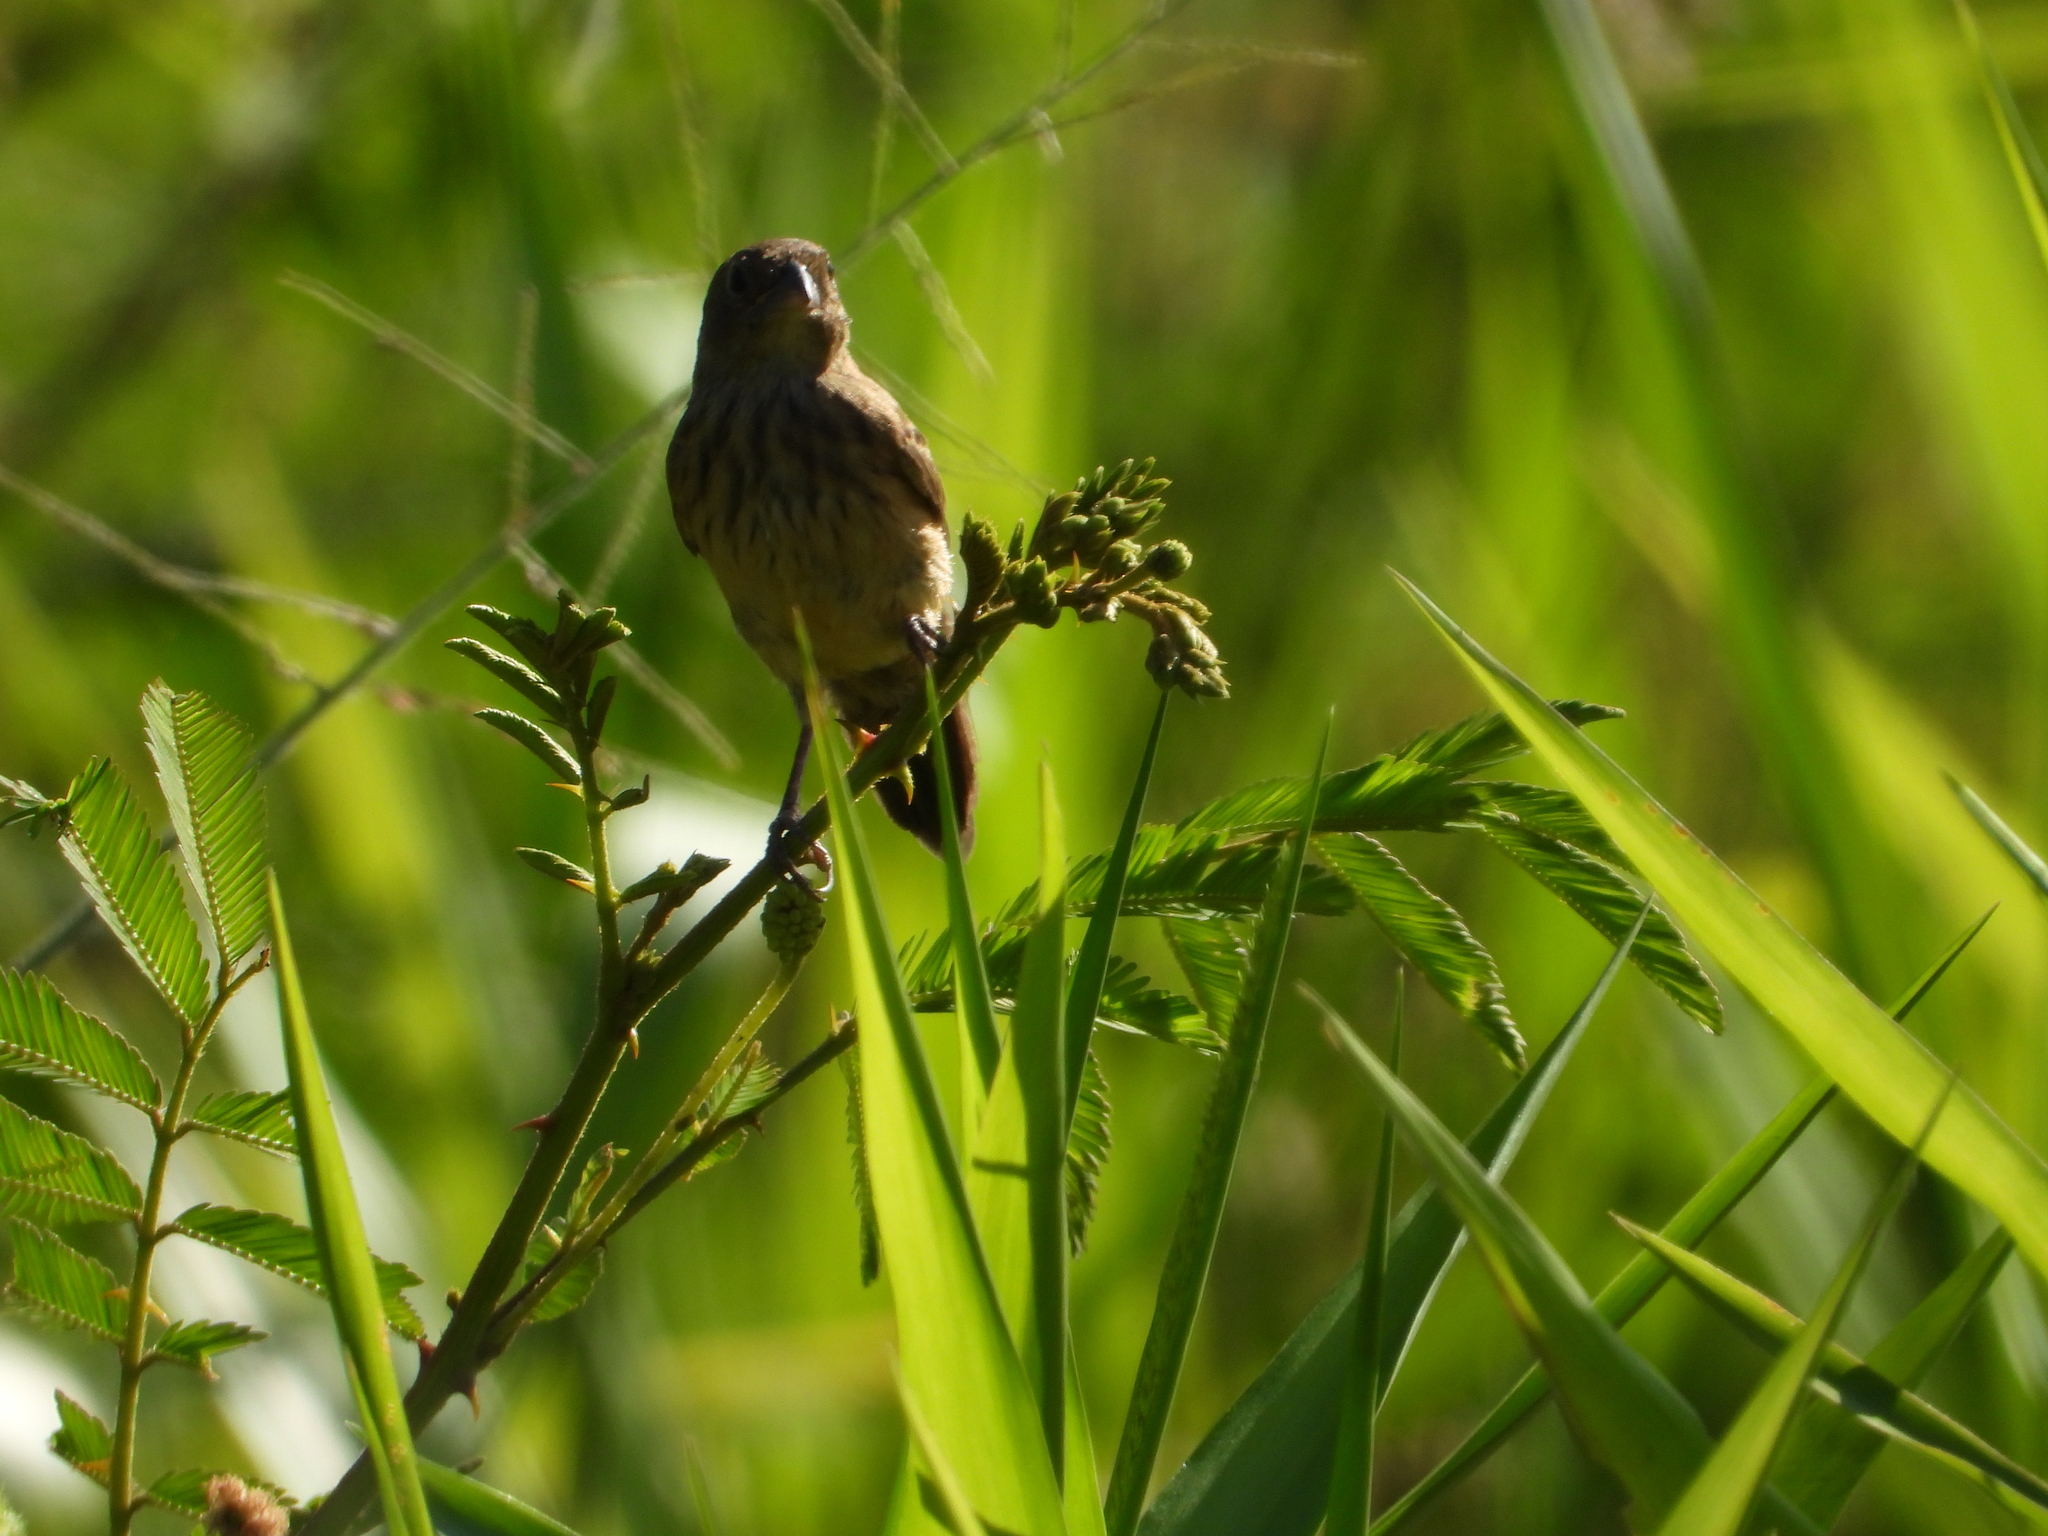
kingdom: Animalia
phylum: Chordata
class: Aves
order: Passeriformes
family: Thraupidae
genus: Volatinia
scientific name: Volatinia jacarina
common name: Blue-black grassquit
